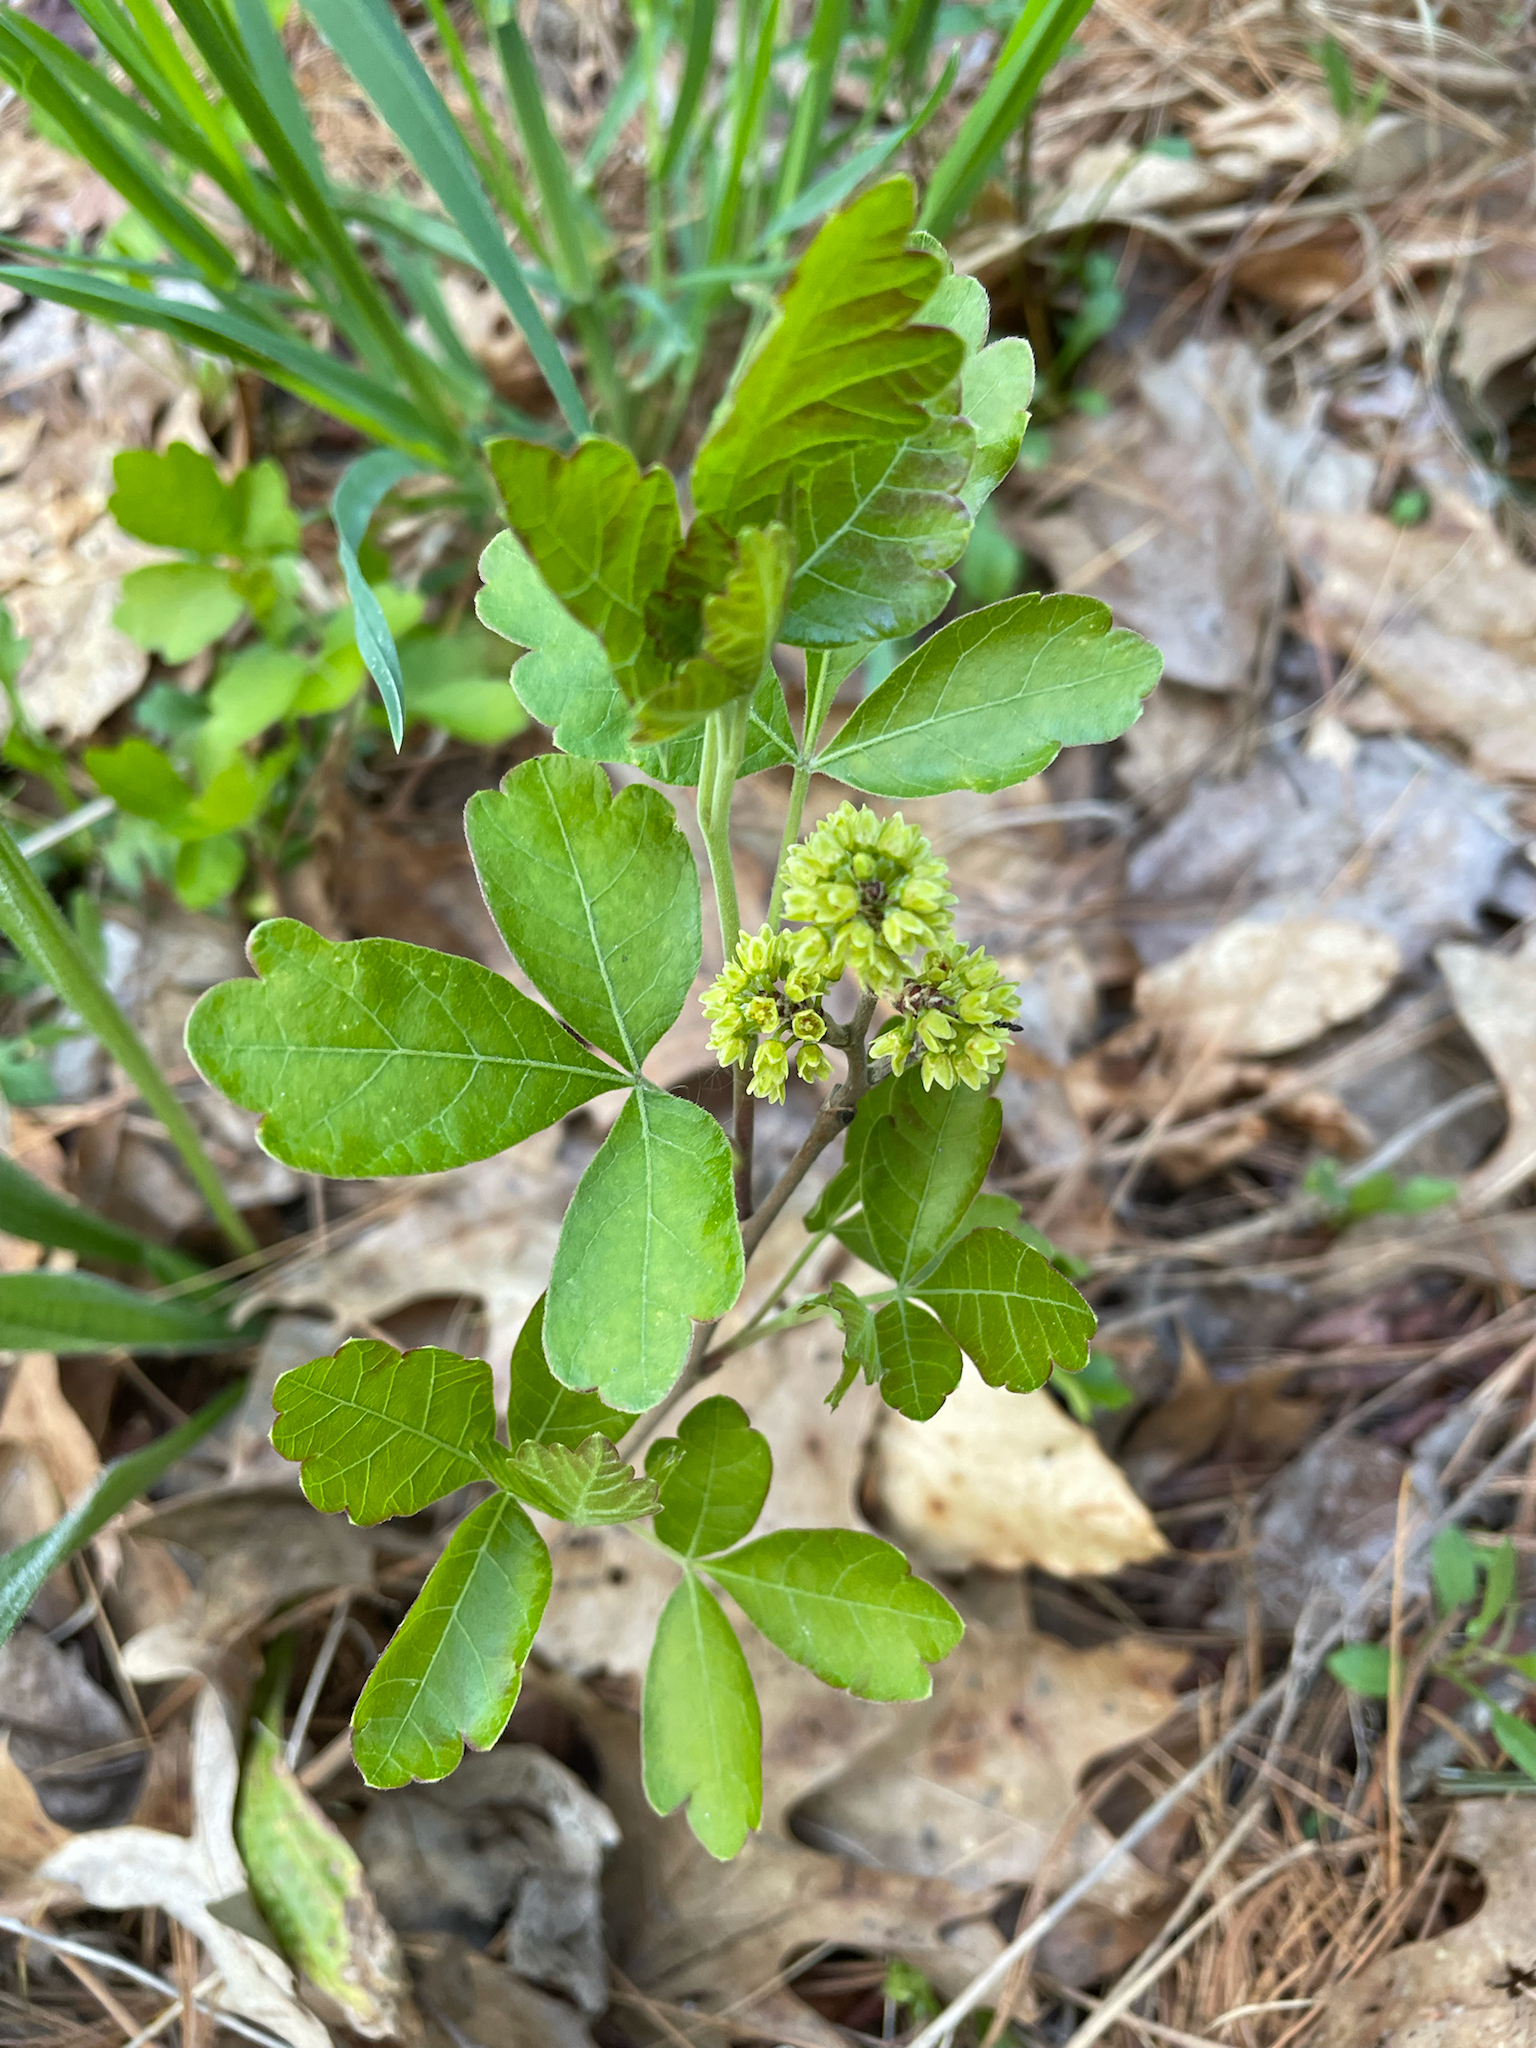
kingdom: Plantae
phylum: Tracheophyta
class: Magnoliopsida
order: Sapindales
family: Anacardiaceae
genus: Rhus
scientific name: Rhus aromatica
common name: Aromatic sumac
